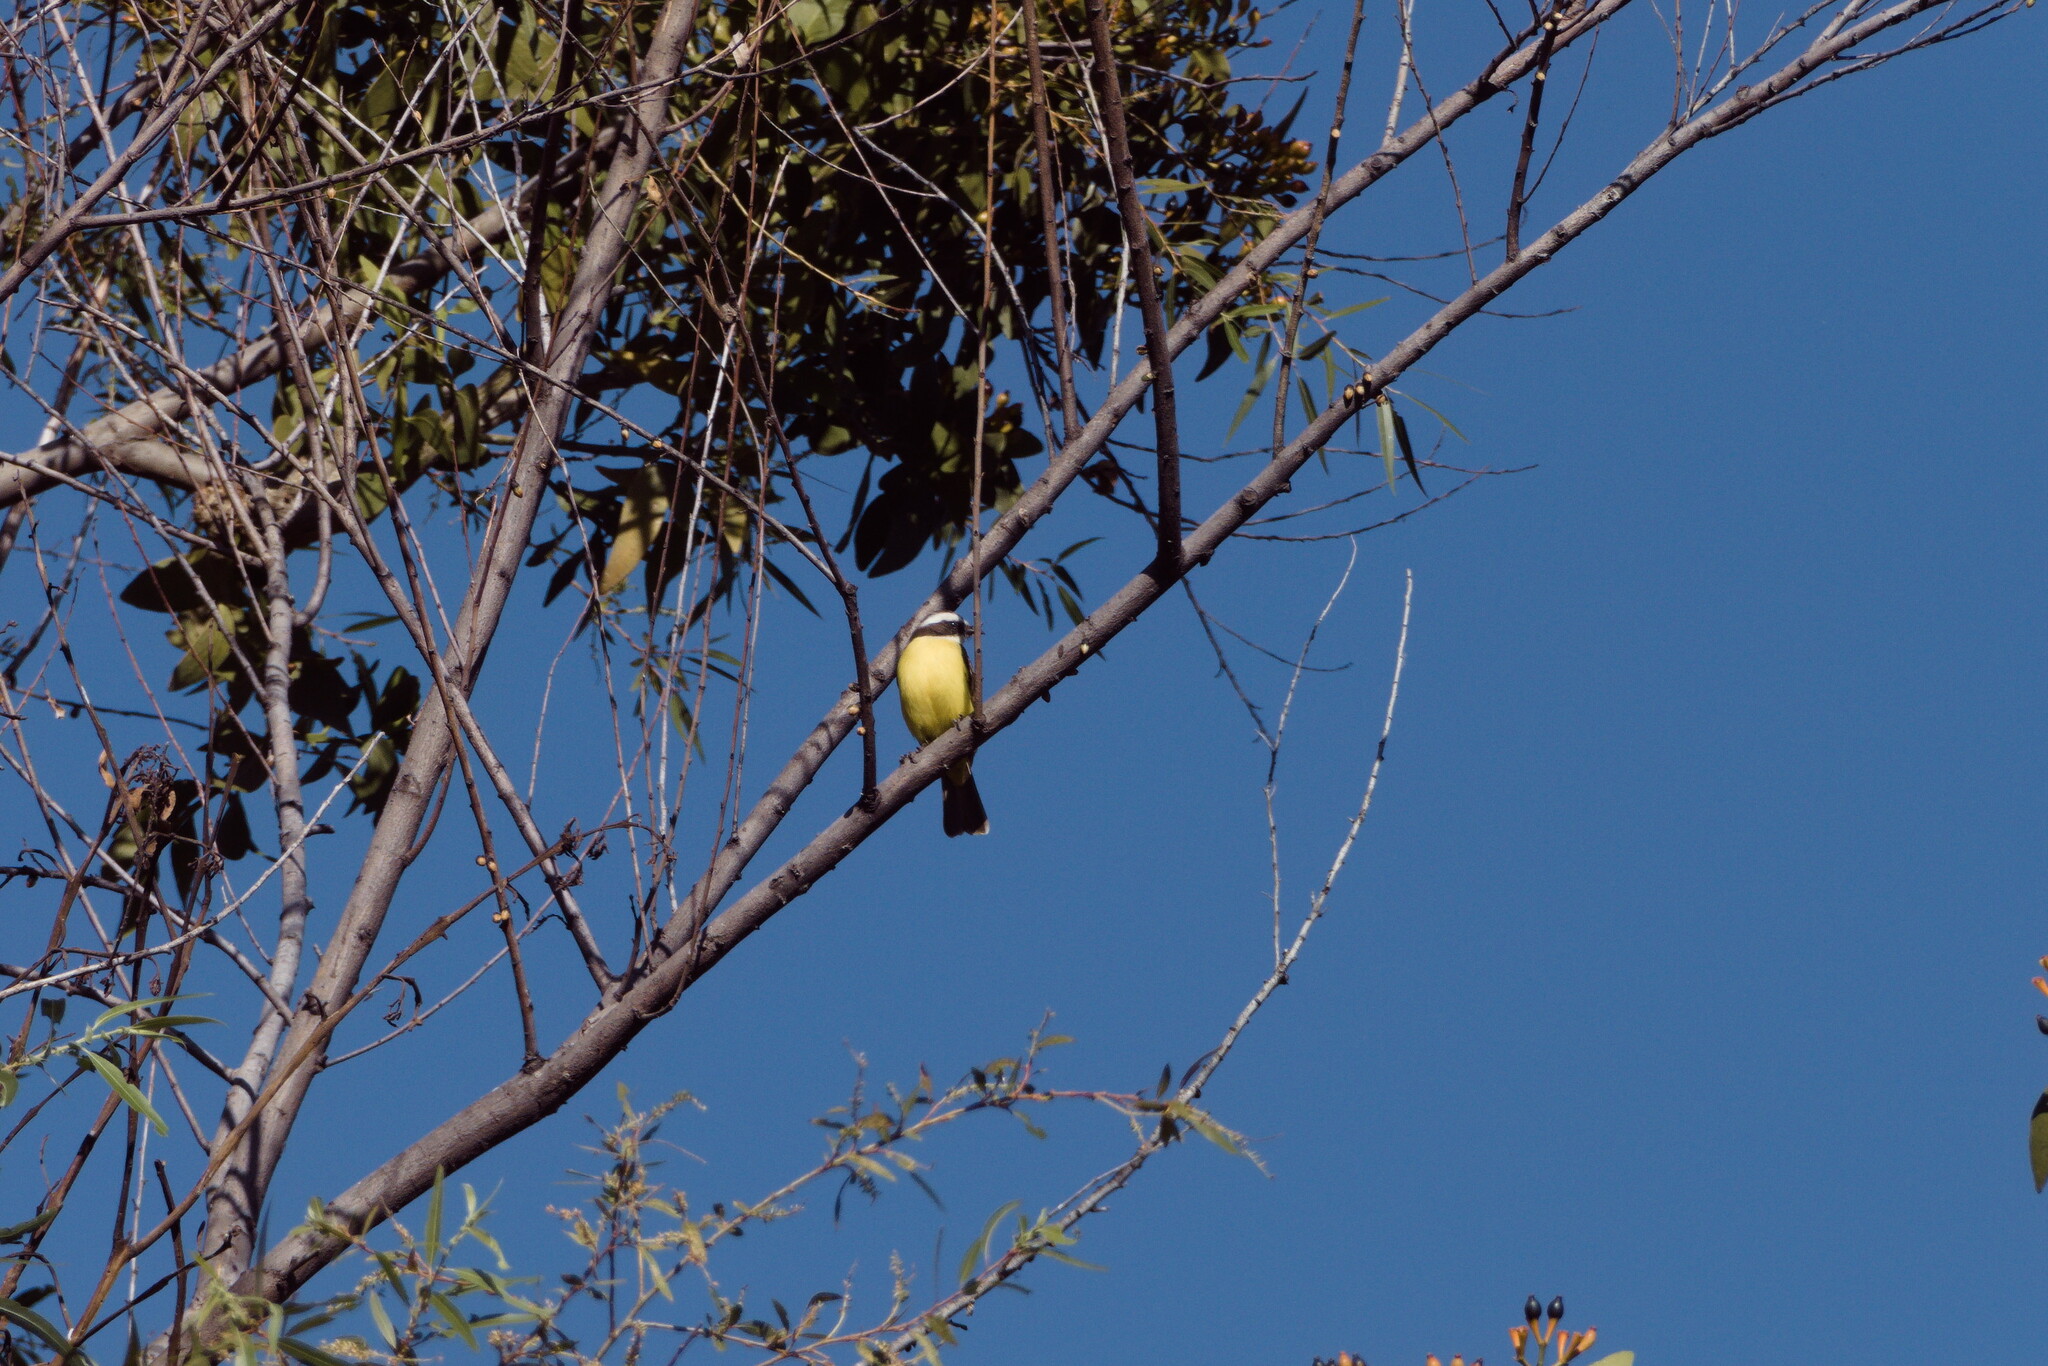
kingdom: Animalia
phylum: Chordata
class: Aves
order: Passeriformes
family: Tyrannidae
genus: Myiozetetes
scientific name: Myiozetetes similis
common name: Social flycatcher
